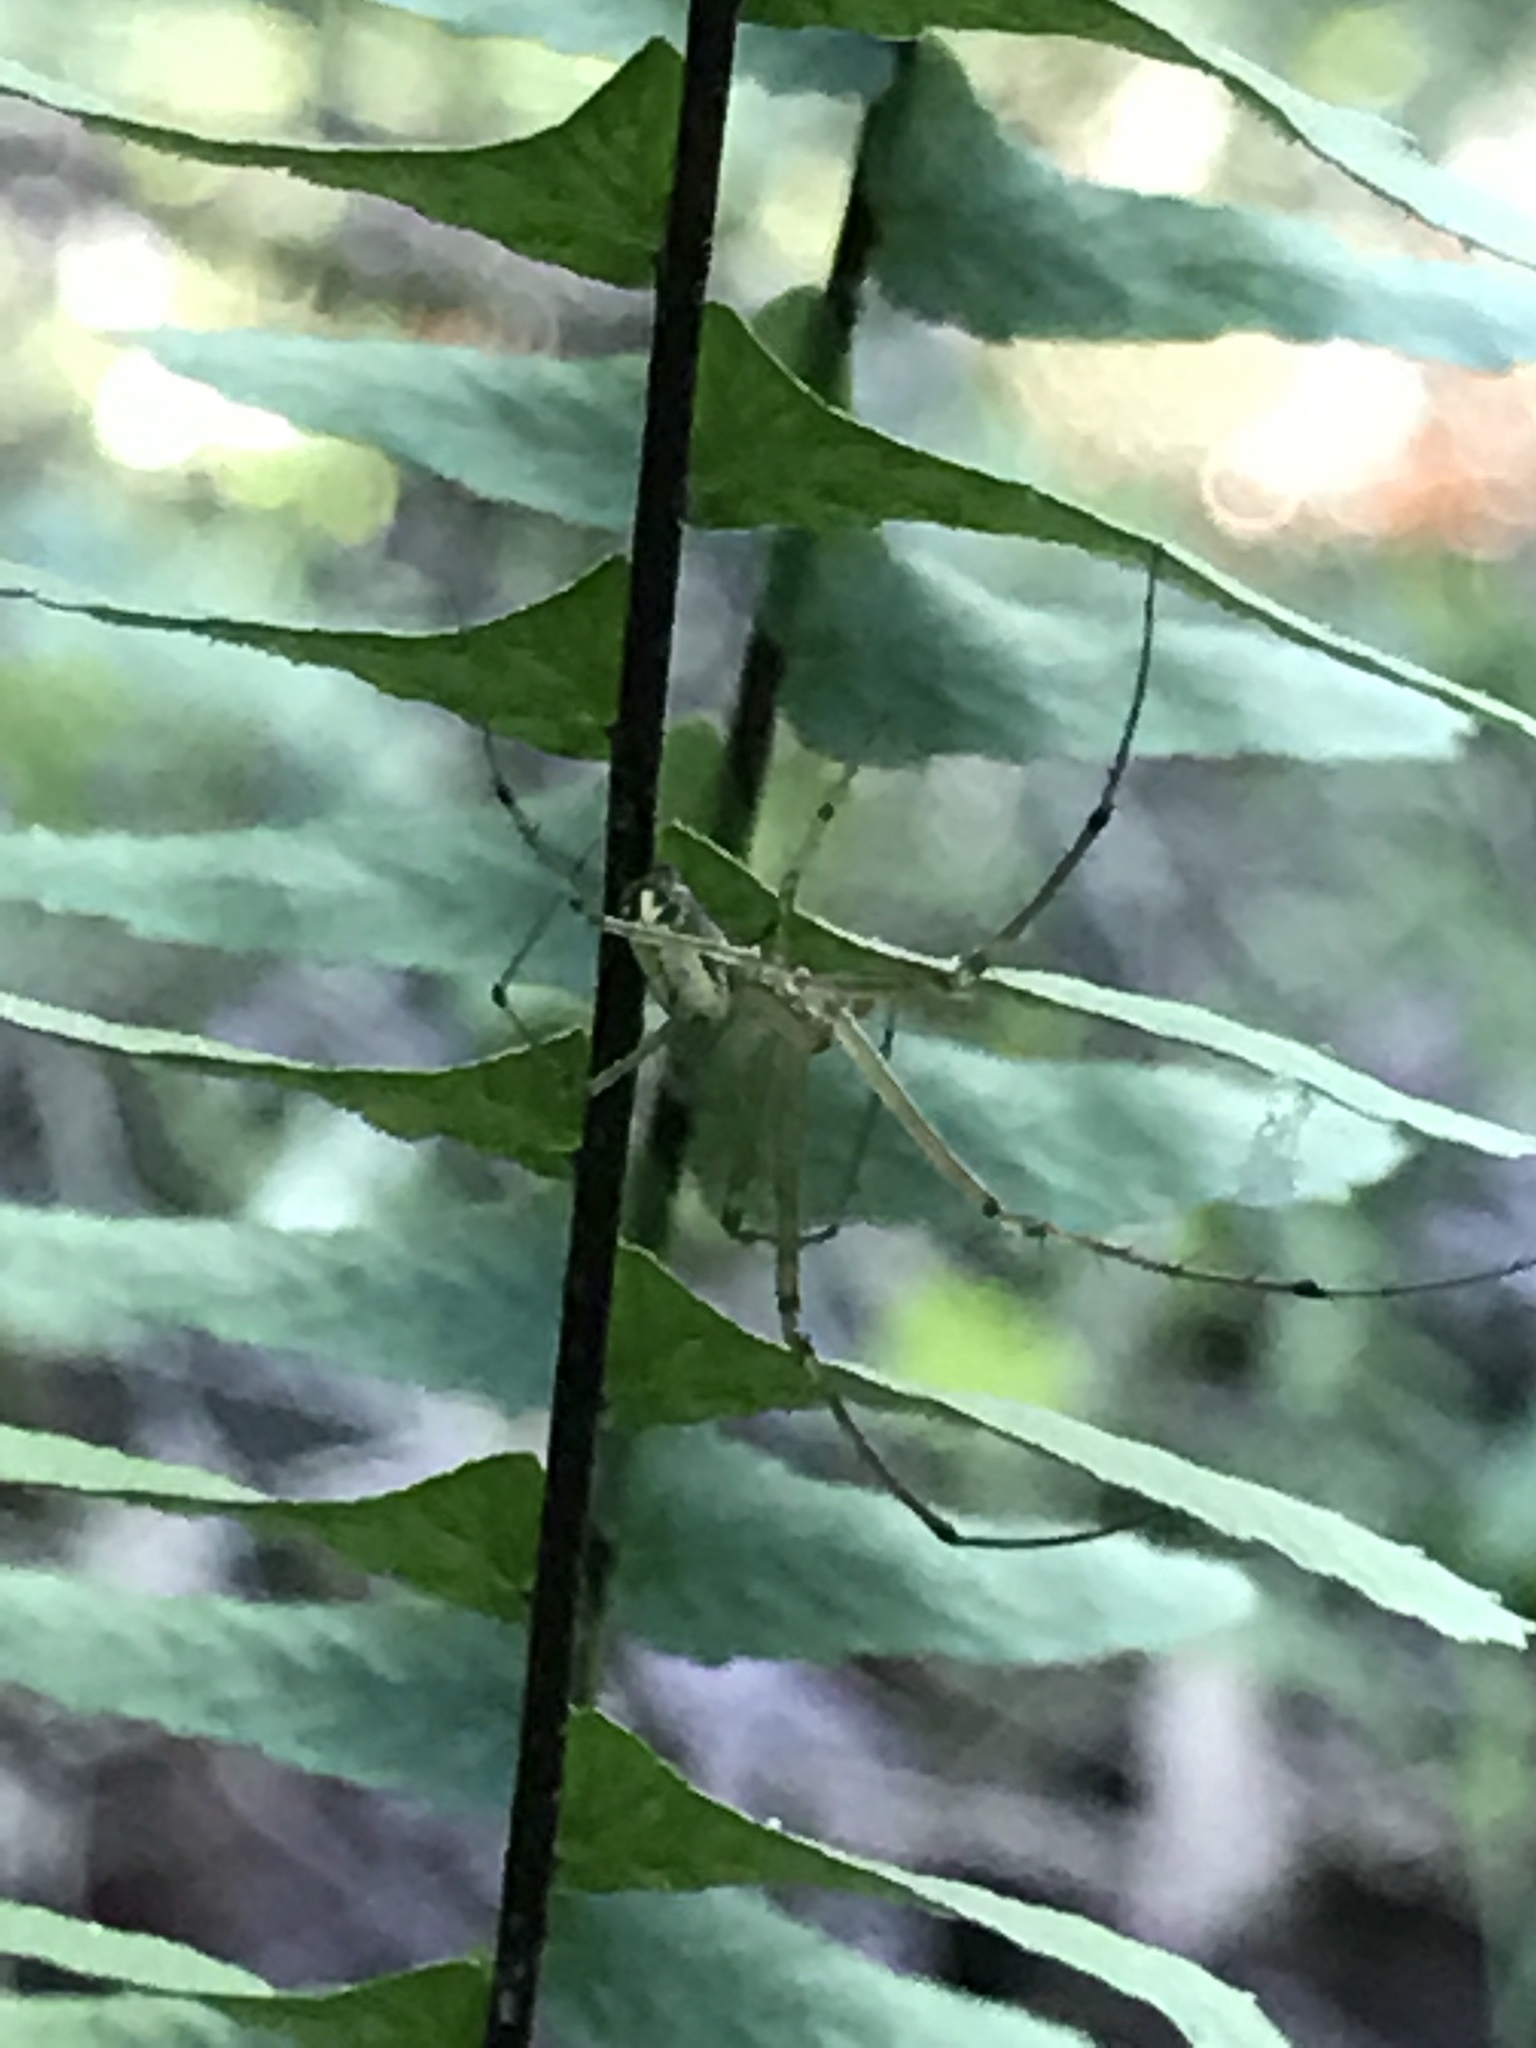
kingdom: Animalia
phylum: Arthropoda
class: Arachnida
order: Araneae
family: Tetragnathidae
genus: Leucauge
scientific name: Leucauge venusta
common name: Longjawed orb weavers
